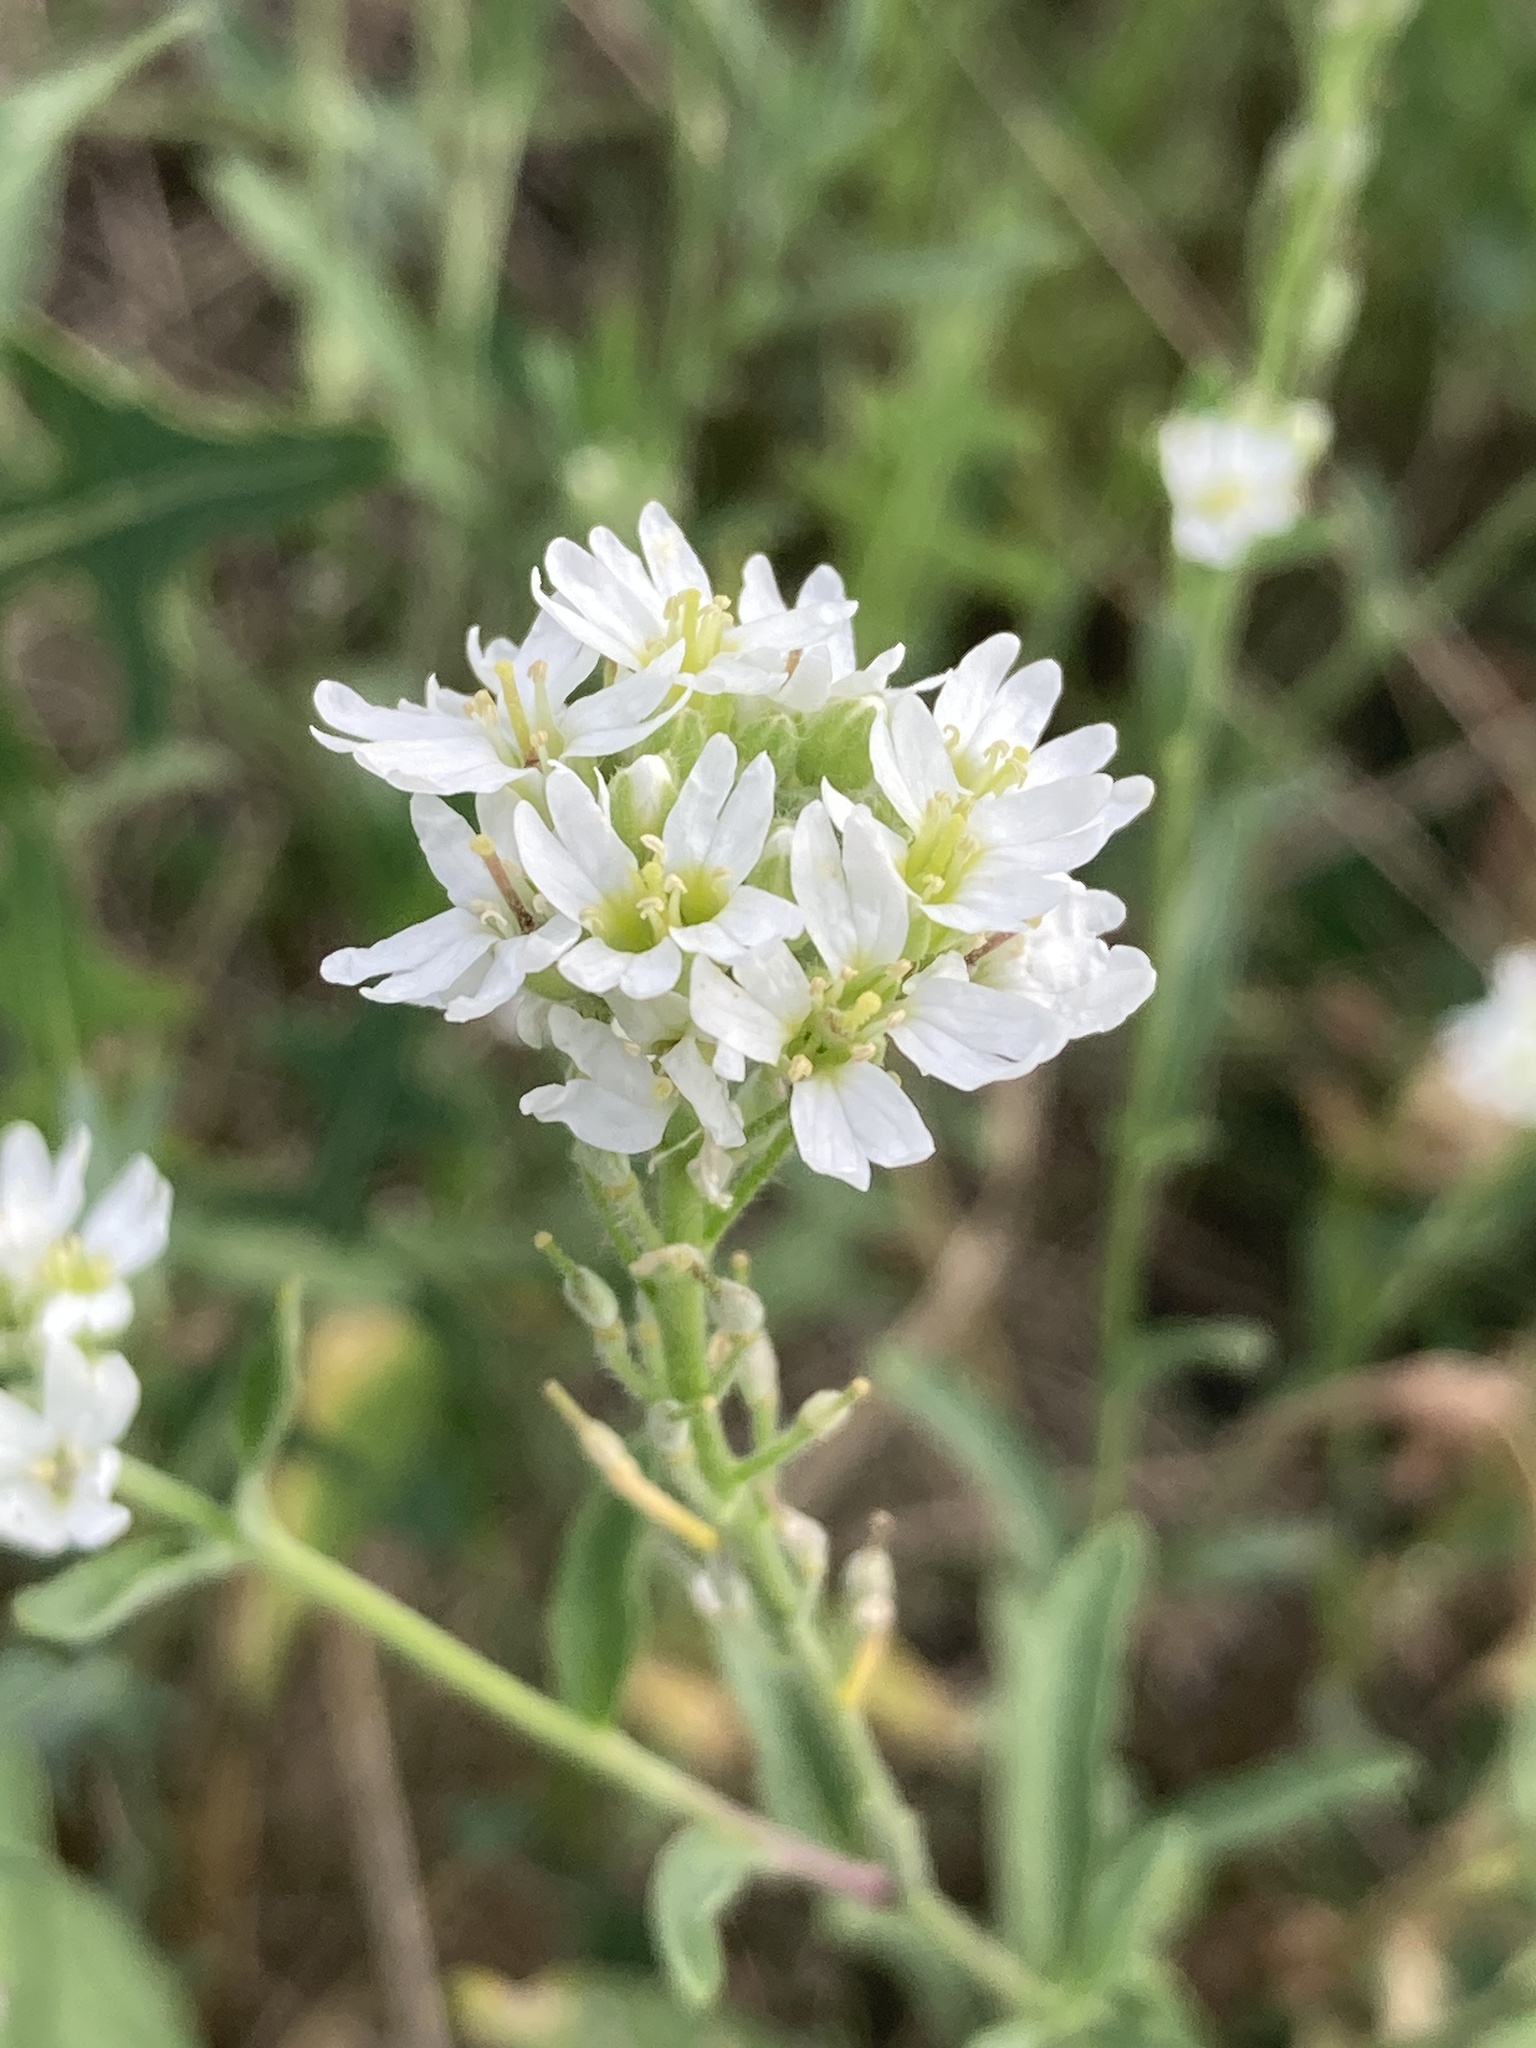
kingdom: Plantae
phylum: Tracheophyta
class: Magnoliopsida
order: Brassicales
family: Brassicaceae
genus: Berteroa
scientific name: Berteroa incana
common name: Hoary alison
